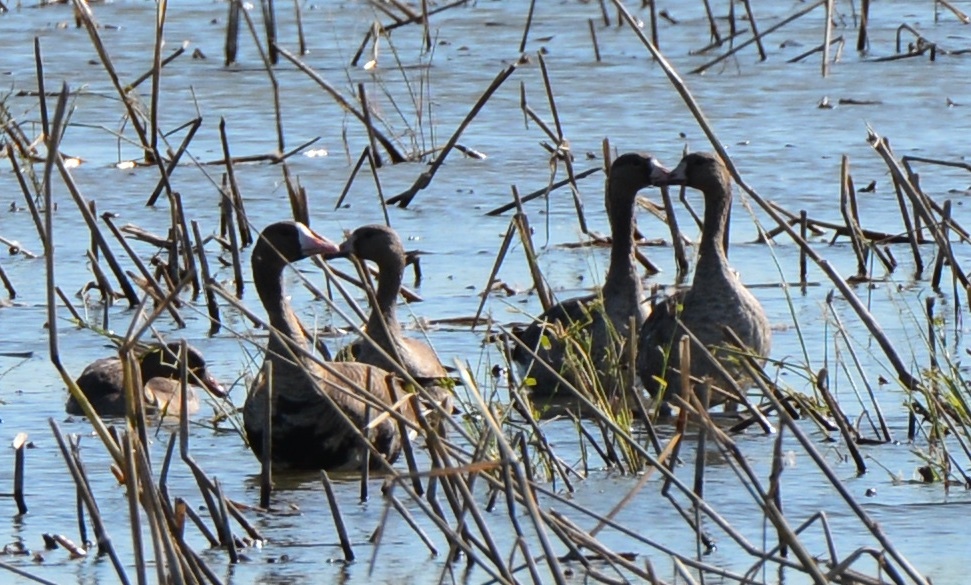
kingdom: Animalia
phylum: Chordata
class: Aves
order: Anseriformes
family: Anatidae
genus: Anser
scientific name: Anser albifrons
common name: Greater white-fronted goose
